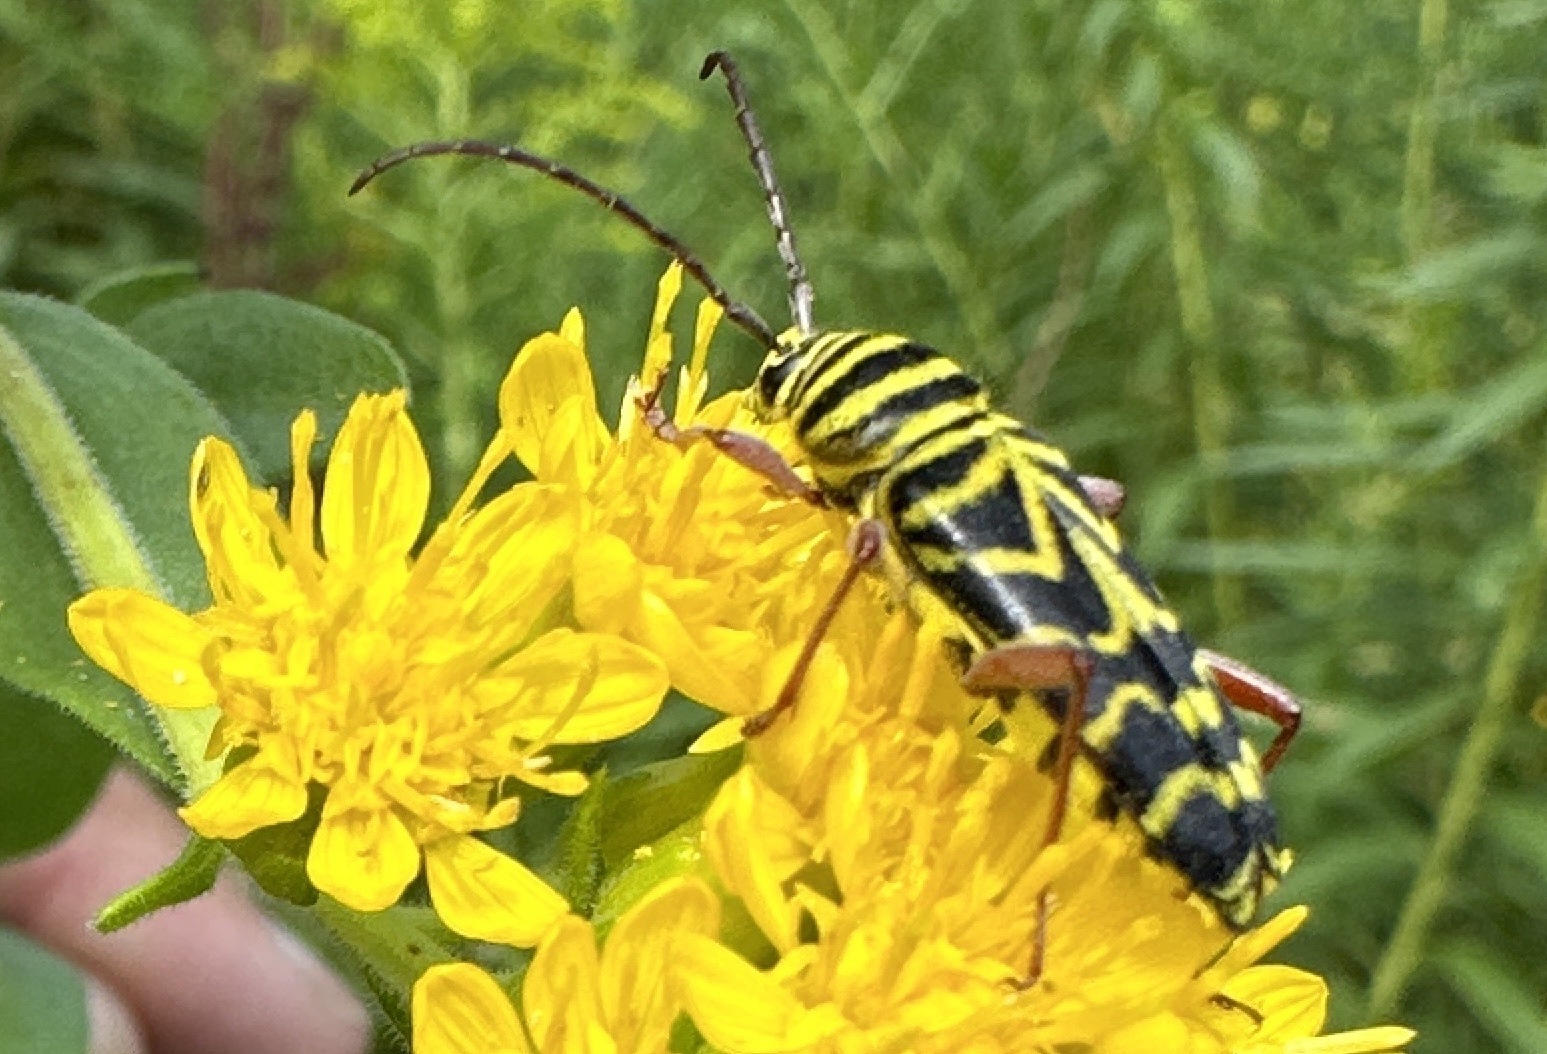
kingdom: Animalia
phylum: Arthropoda
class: Insecta
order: Coleoptera
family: Cerambycidae
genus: Megacyllene
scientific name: Megacyllene robiniae
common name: Locust borer
